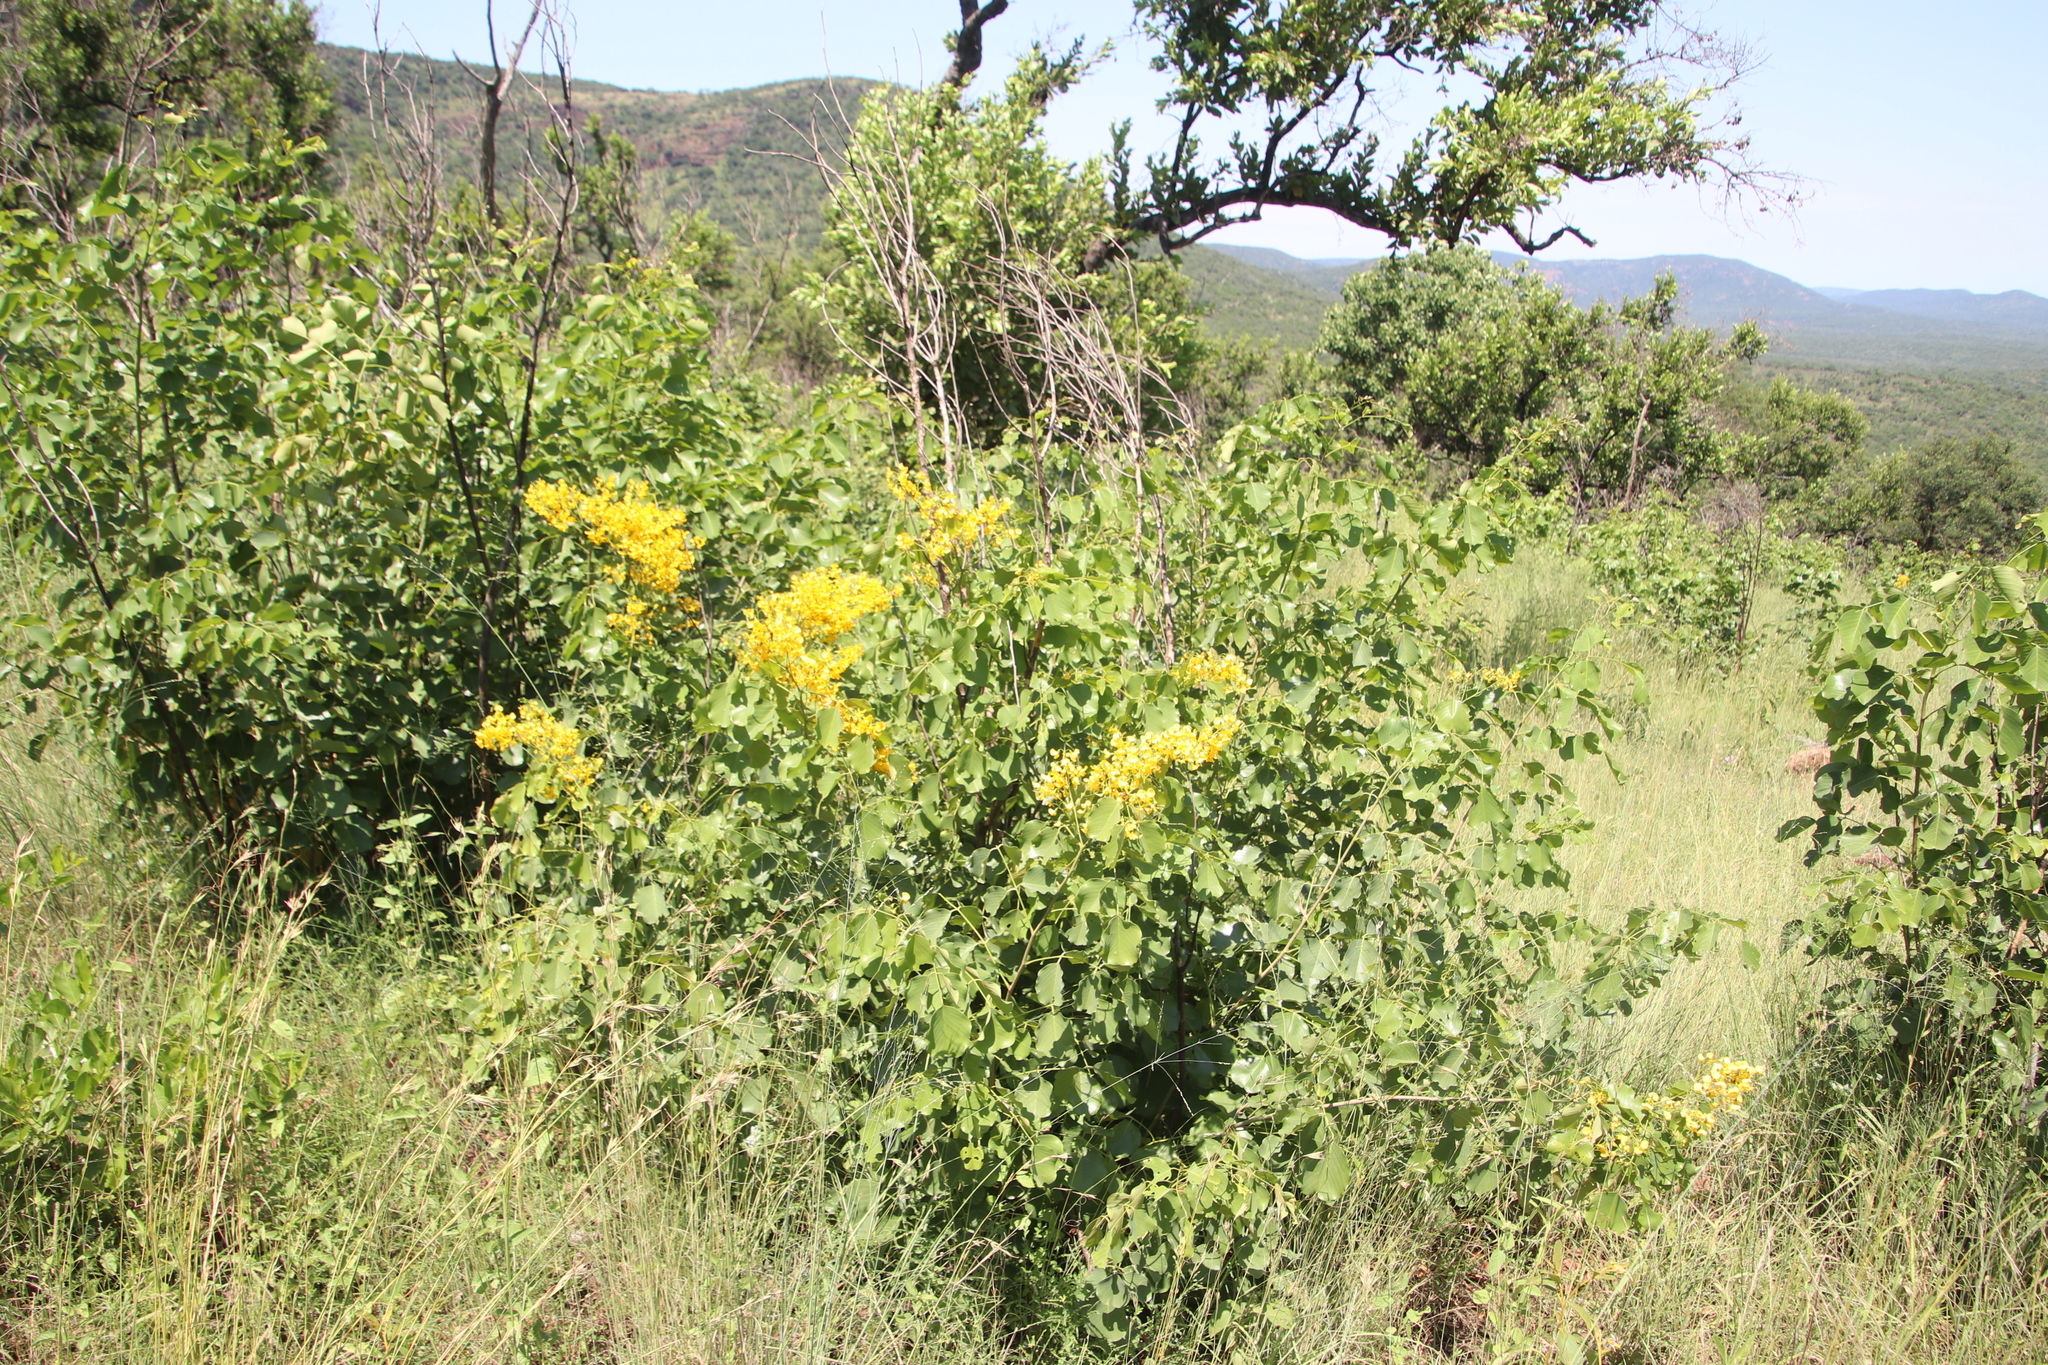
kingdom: Plantae
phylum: Tracheophyta
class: Magnoliopsida
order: Fabales
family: Fabaceae
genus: Pterocarpus
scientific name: Pterocarpus rotundifolius
